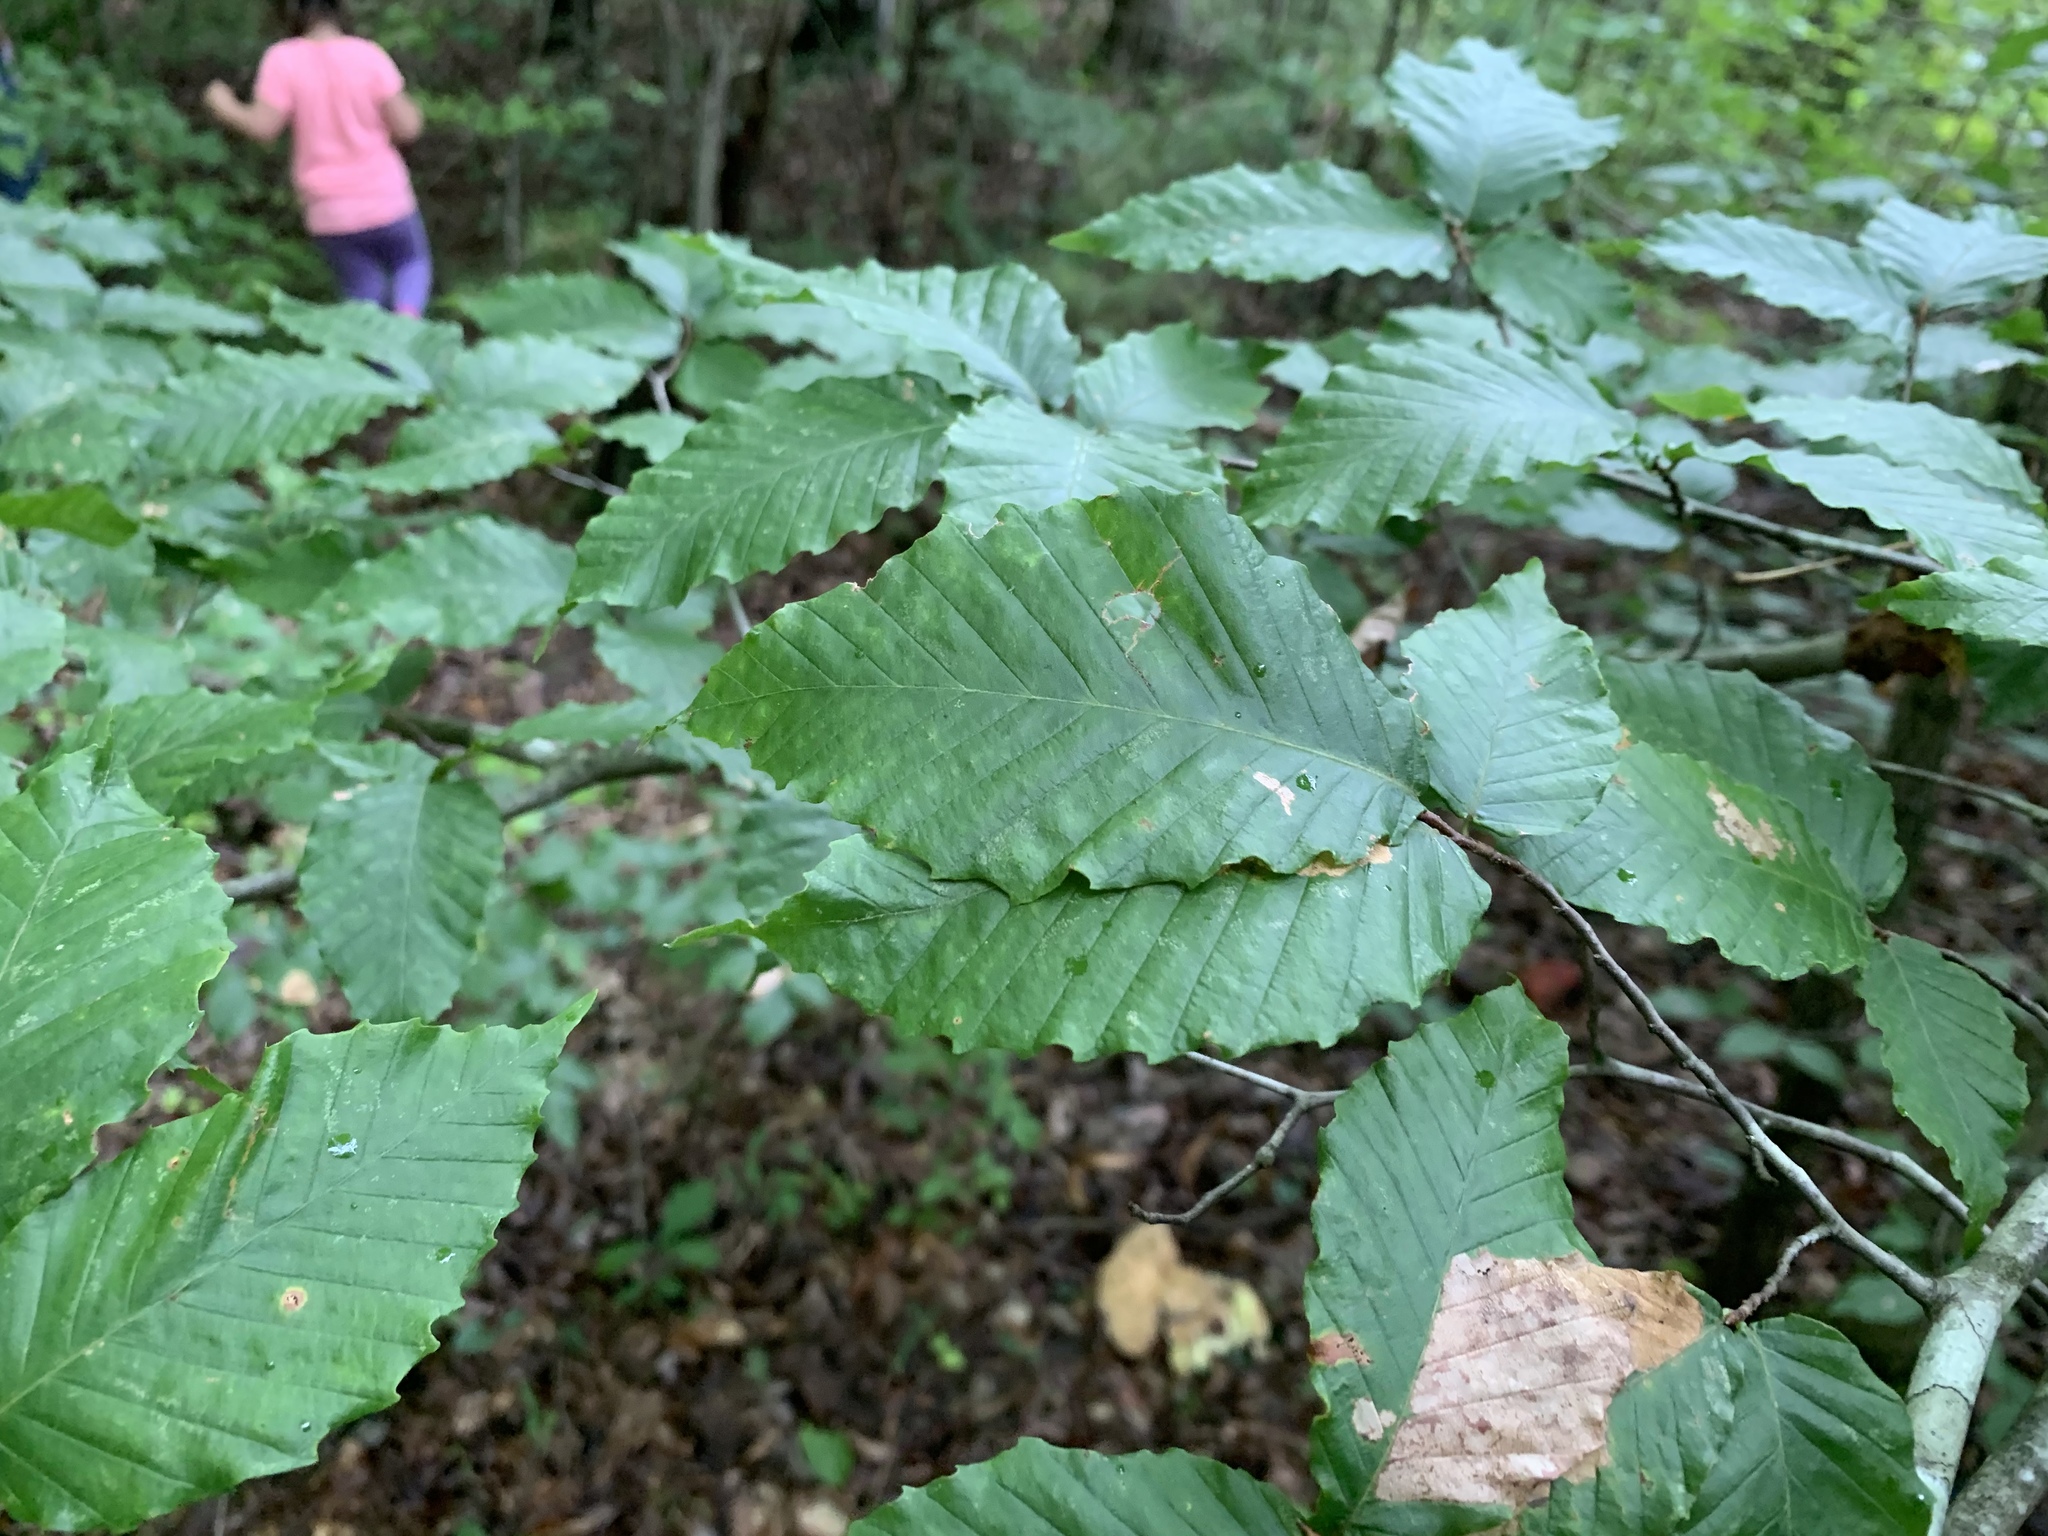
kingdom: Plantae
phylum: Tracheophyta
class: Magnoliopsida
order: Fagales
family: Fagaceae
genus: Fagus
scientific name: Fagus grandifolia
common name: American beech
